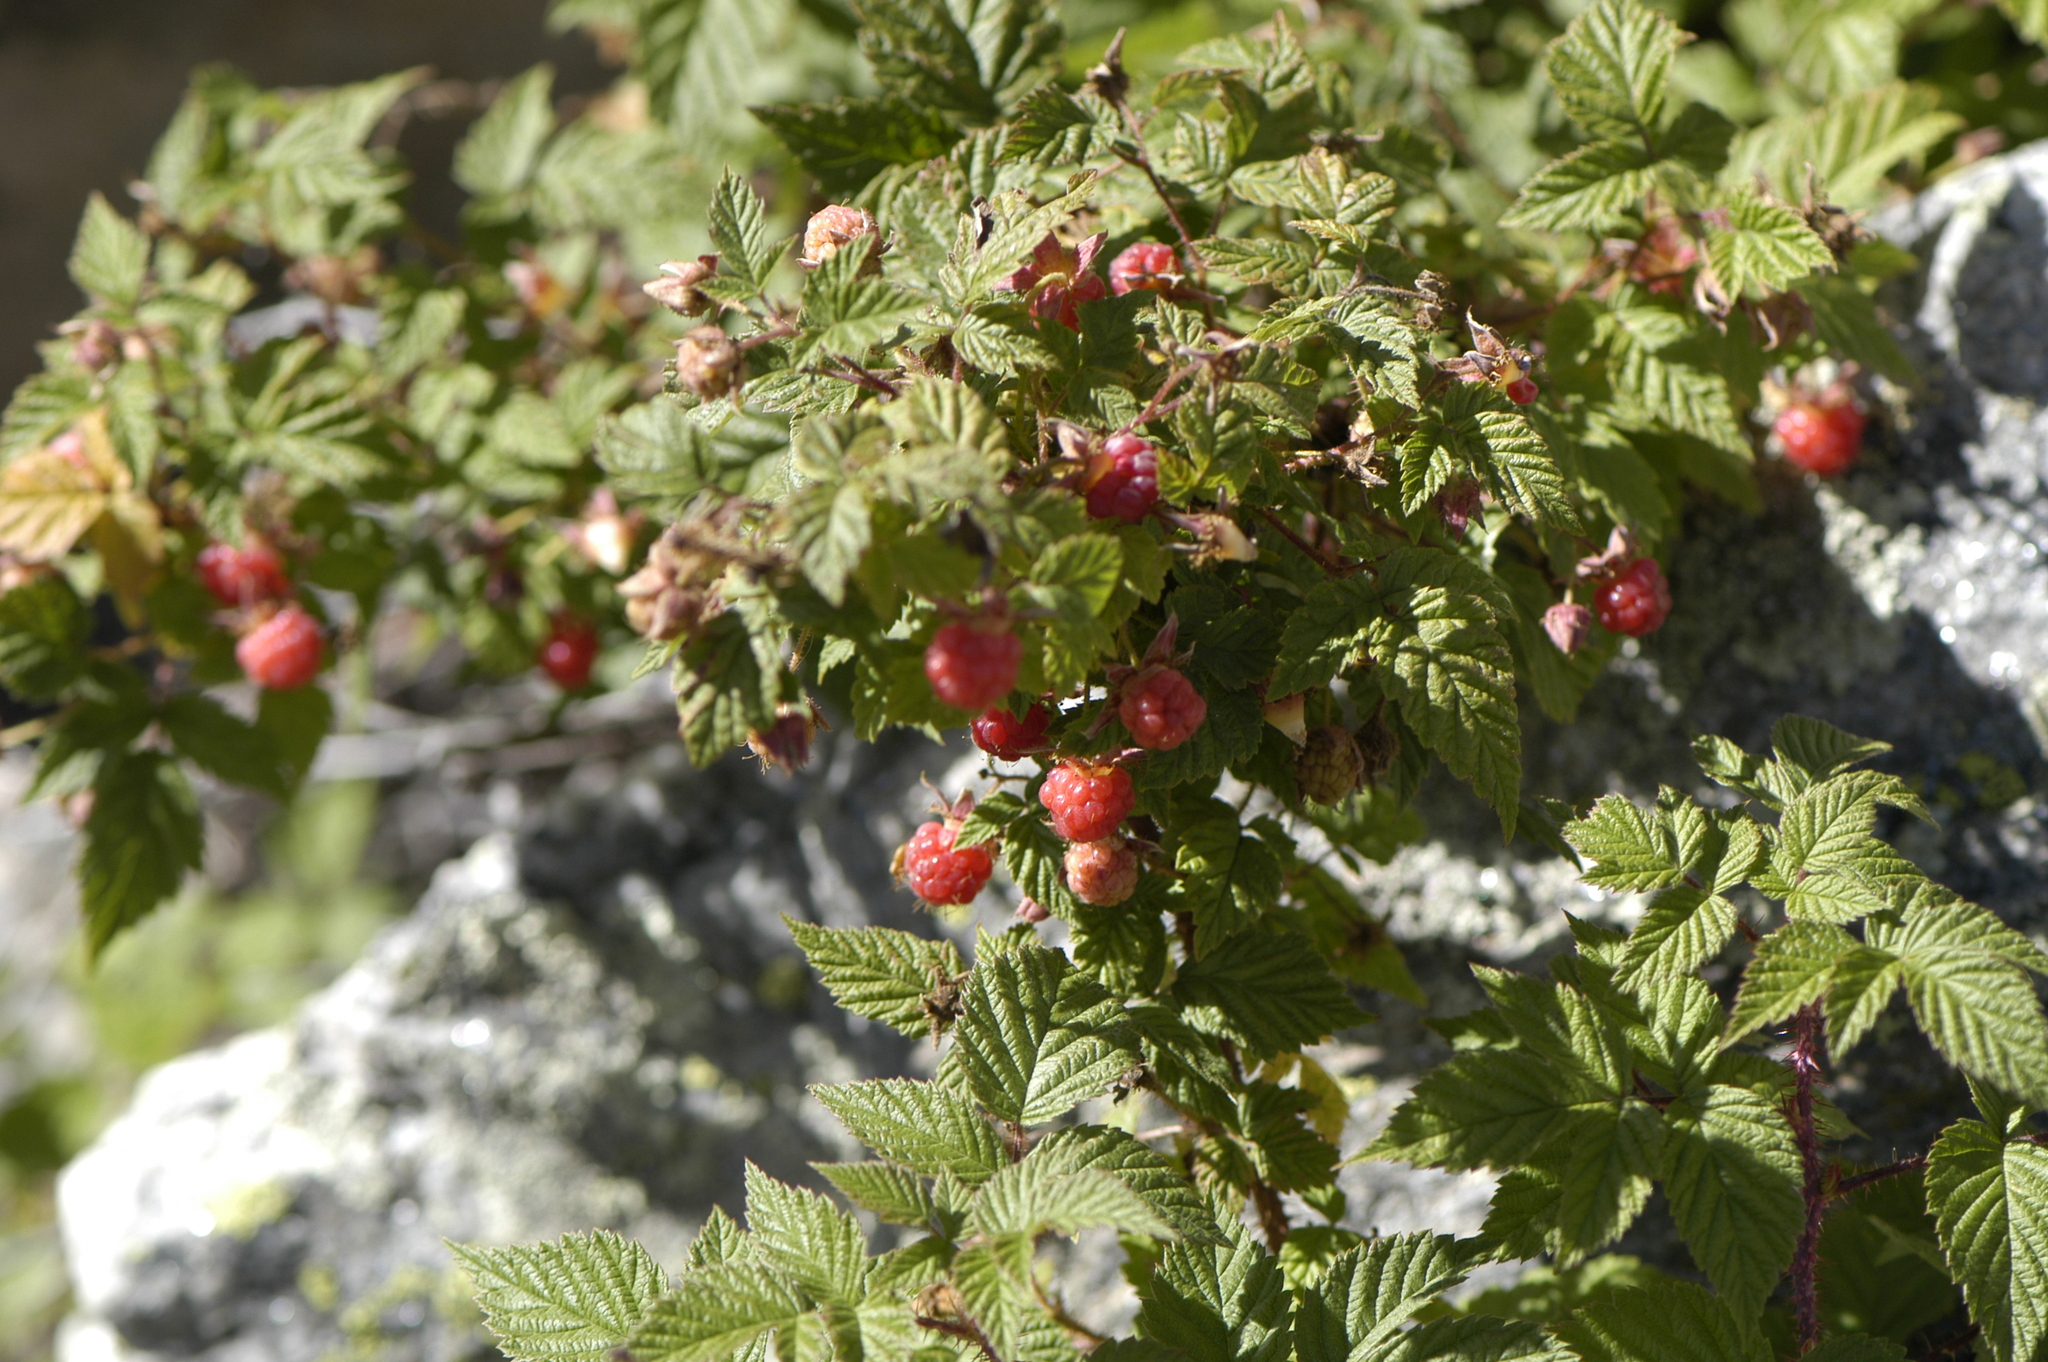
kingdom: Plantae
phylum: Tracheophyta
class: Magnoliopsida
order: Rosales
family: Rosaceae
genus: Rubus
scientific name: Rubus idaeus
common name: Raspberry
